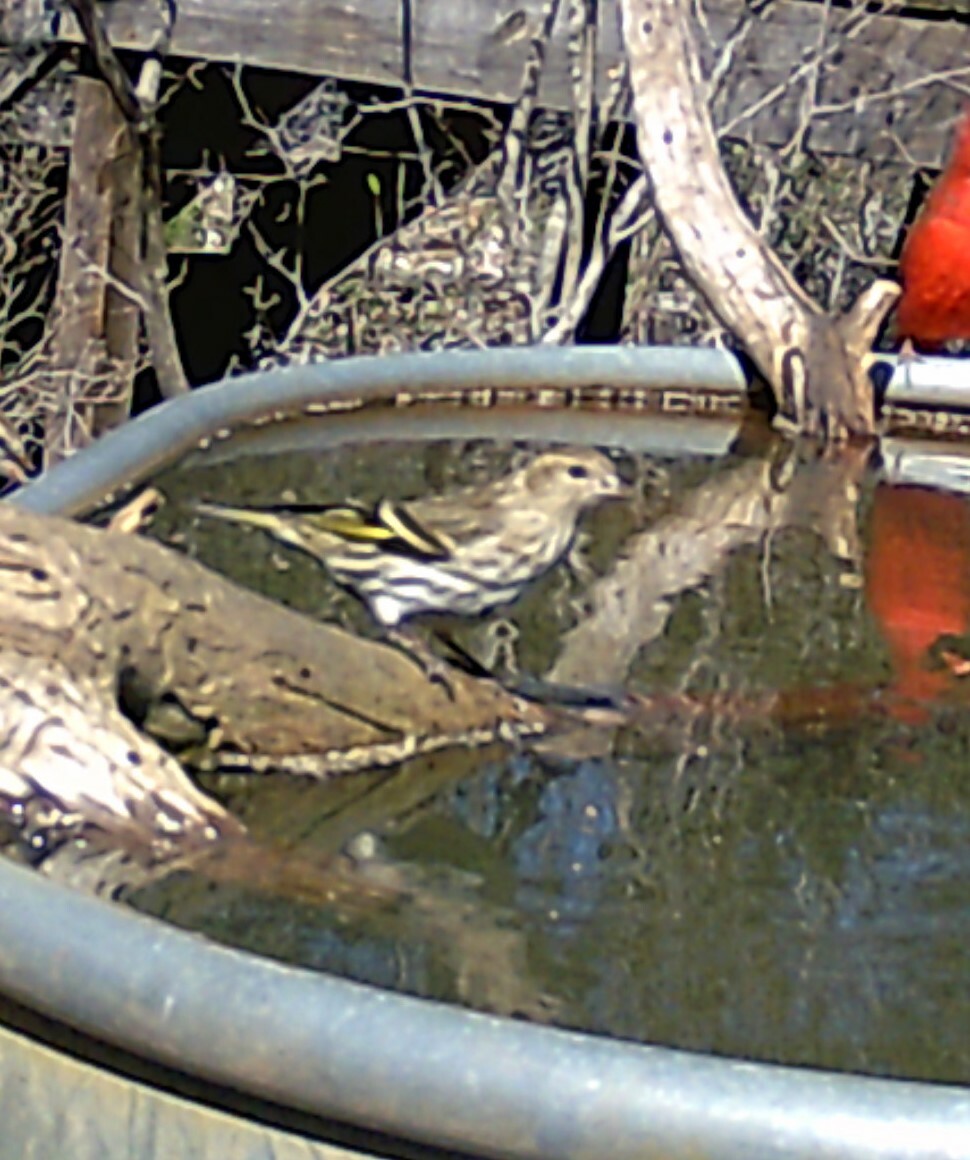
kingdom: Animalia
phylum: Chordata
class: Aves
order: Passeriformes
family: Fringillidae
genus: Spinus
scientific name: Spinus pinus
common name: Pine siskin
